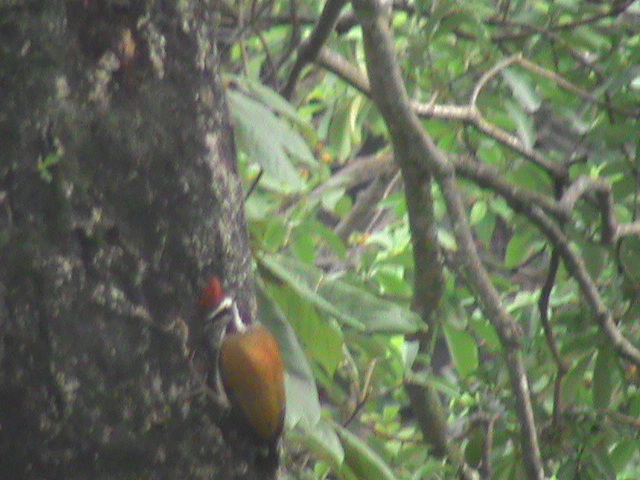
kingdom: Animalia
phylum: Chordata
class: Aves
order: Piciformes
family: Picidae
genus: Chrysocolaptes
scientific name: Chrysocolaptes socialis
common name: Malabar flameback
